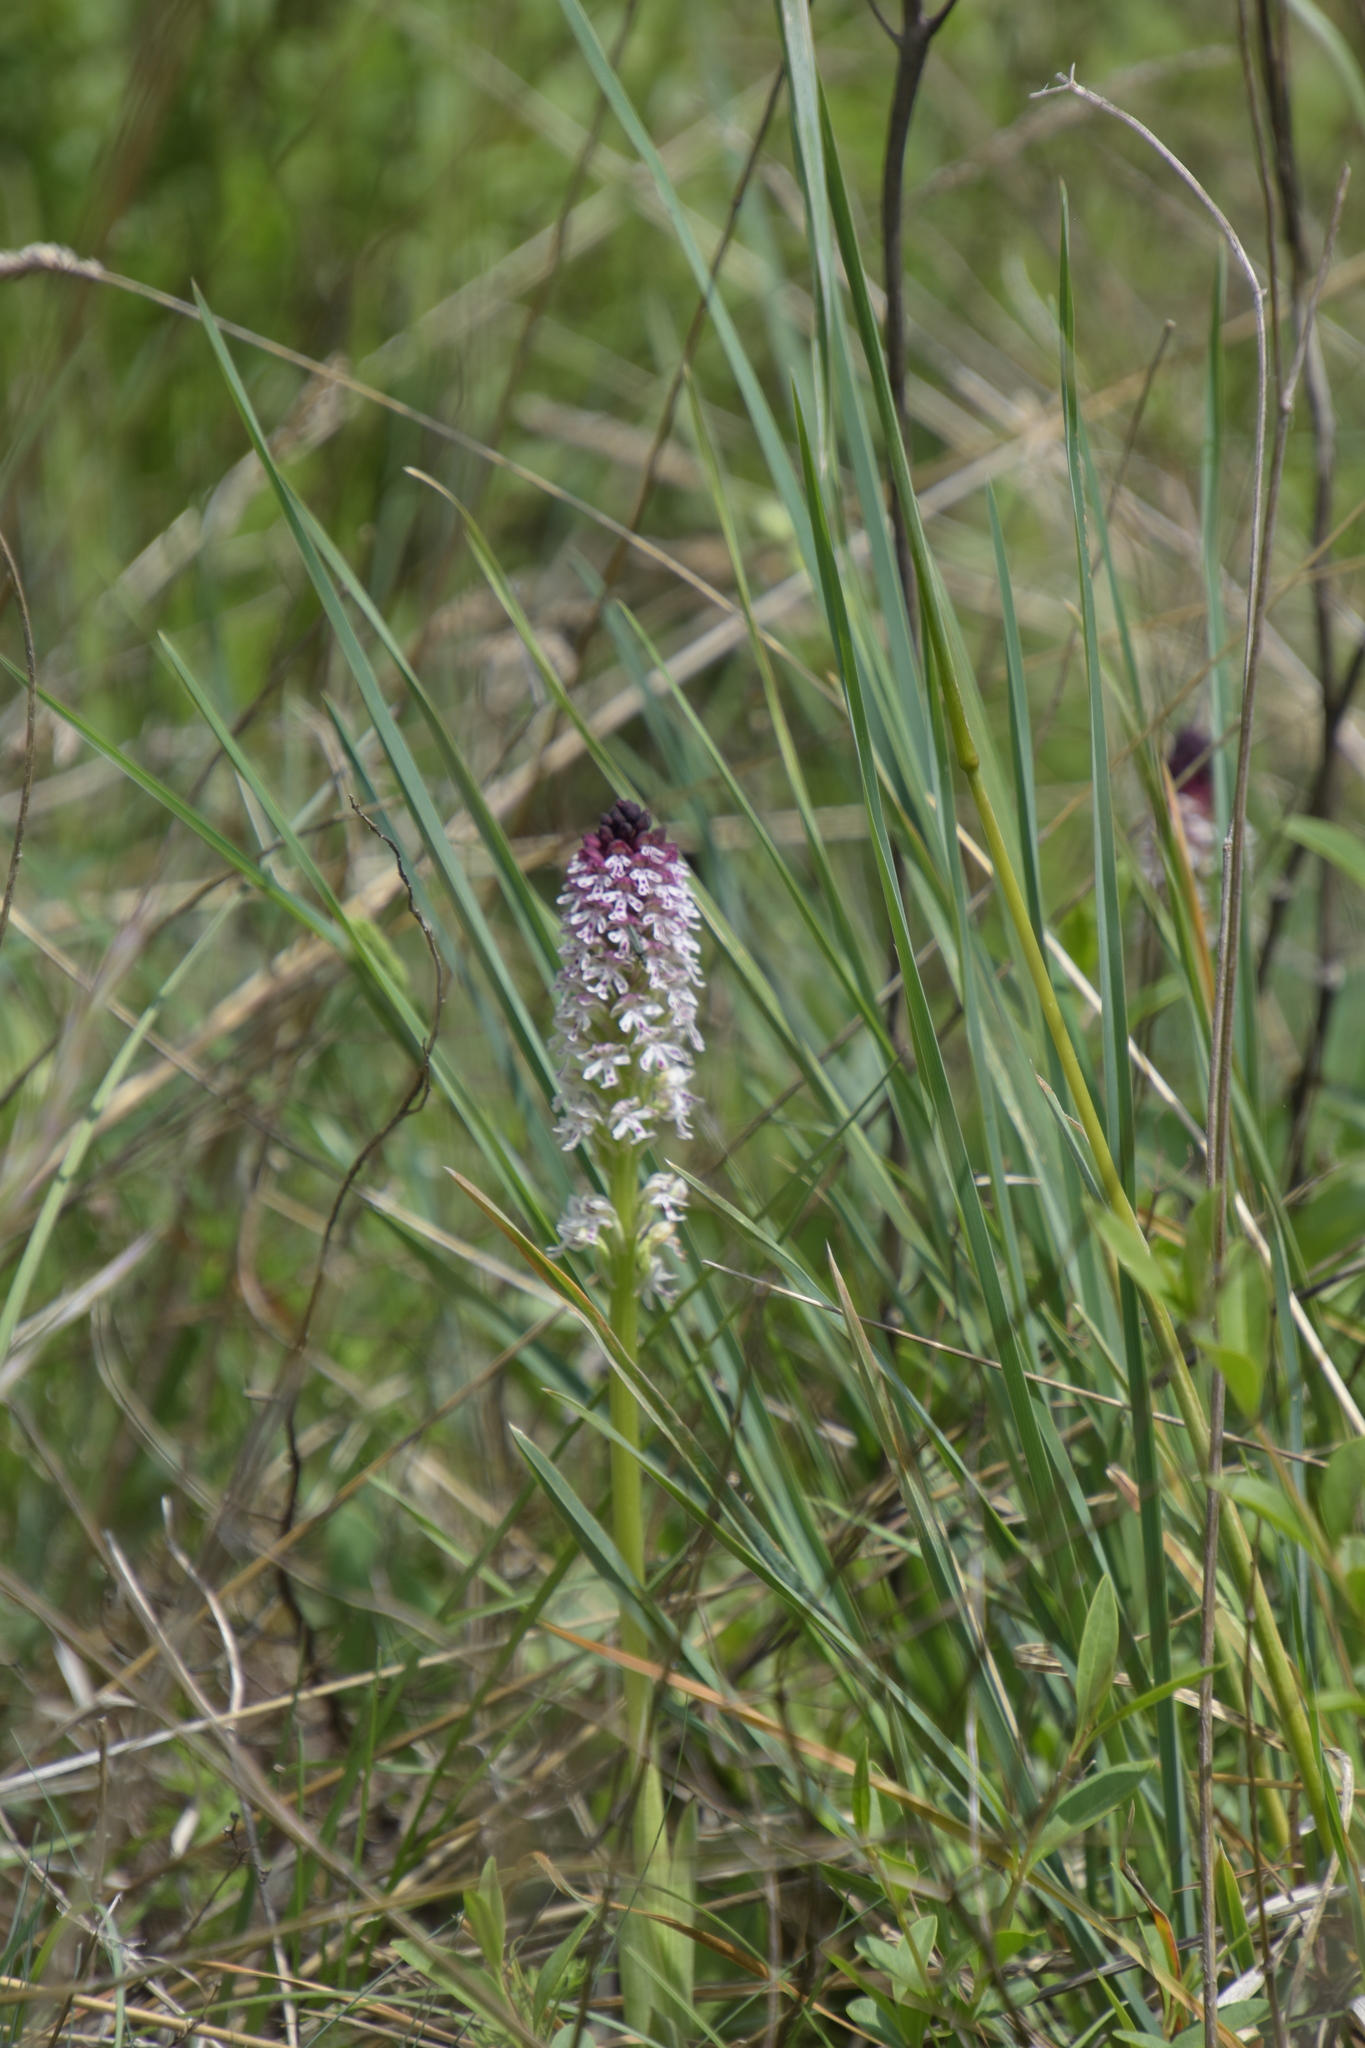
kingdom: Plantae
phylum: Tracheophyta
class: Liliopsida
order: Asparagales
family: Orchidaceae
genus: Neotinea
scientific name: Neotinea ustulata
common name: Burnt orchid
